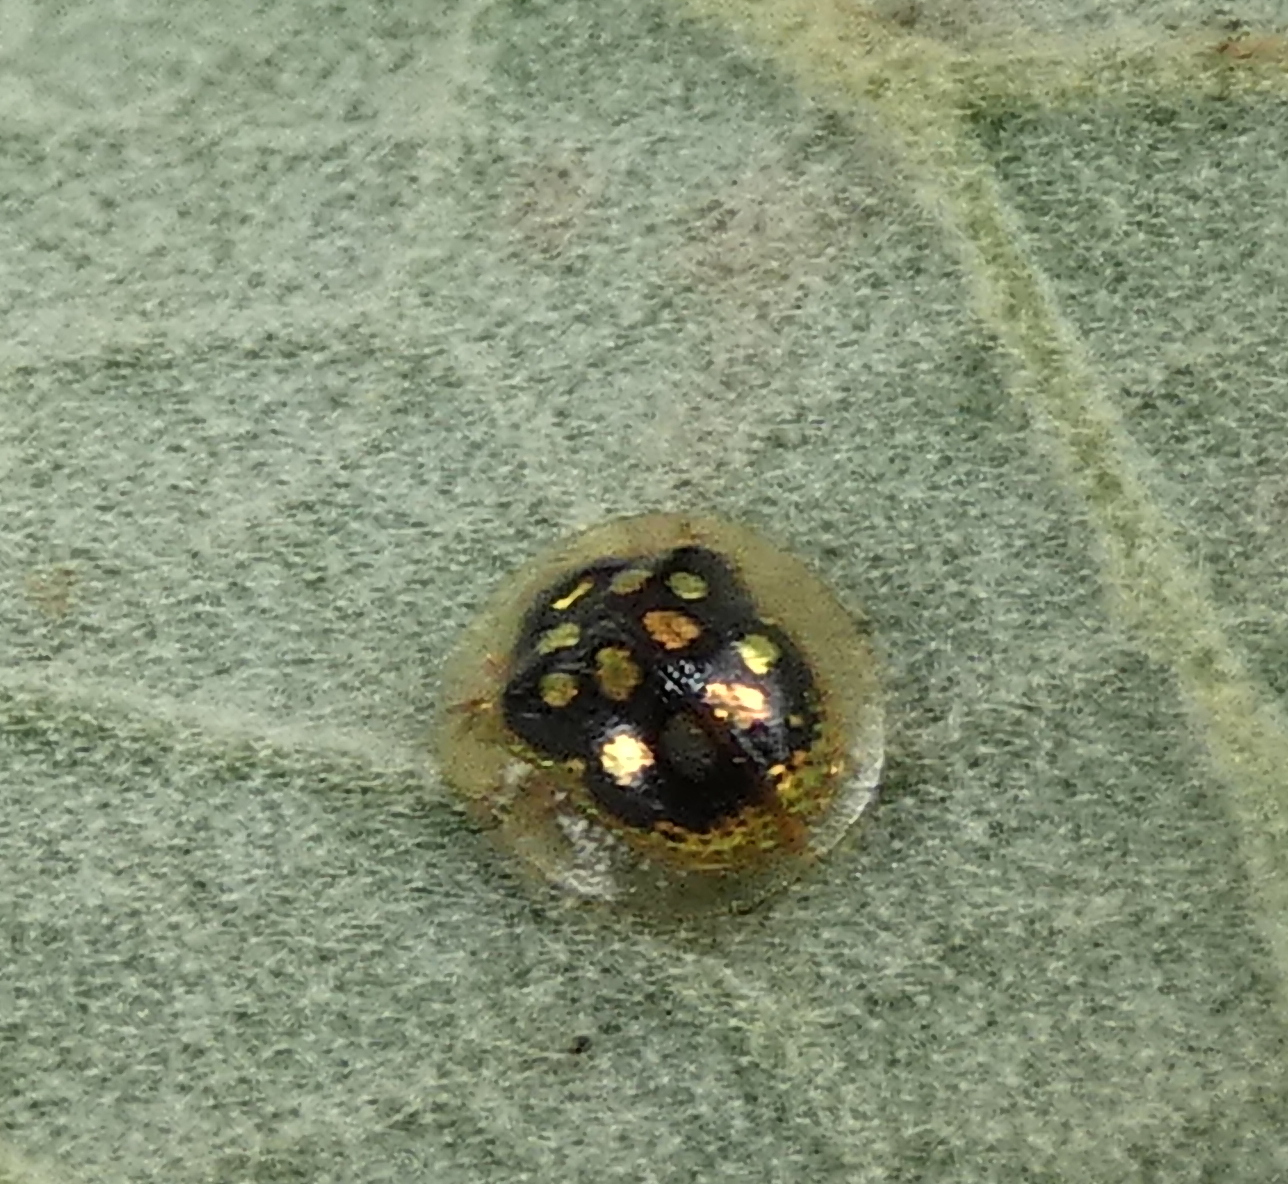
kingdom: Animalia
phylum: Arthropoda
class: Insecta
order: Coleoptera
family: Chrysomelidae
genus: Plagiometriona
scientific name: Plagiometriona microcera
